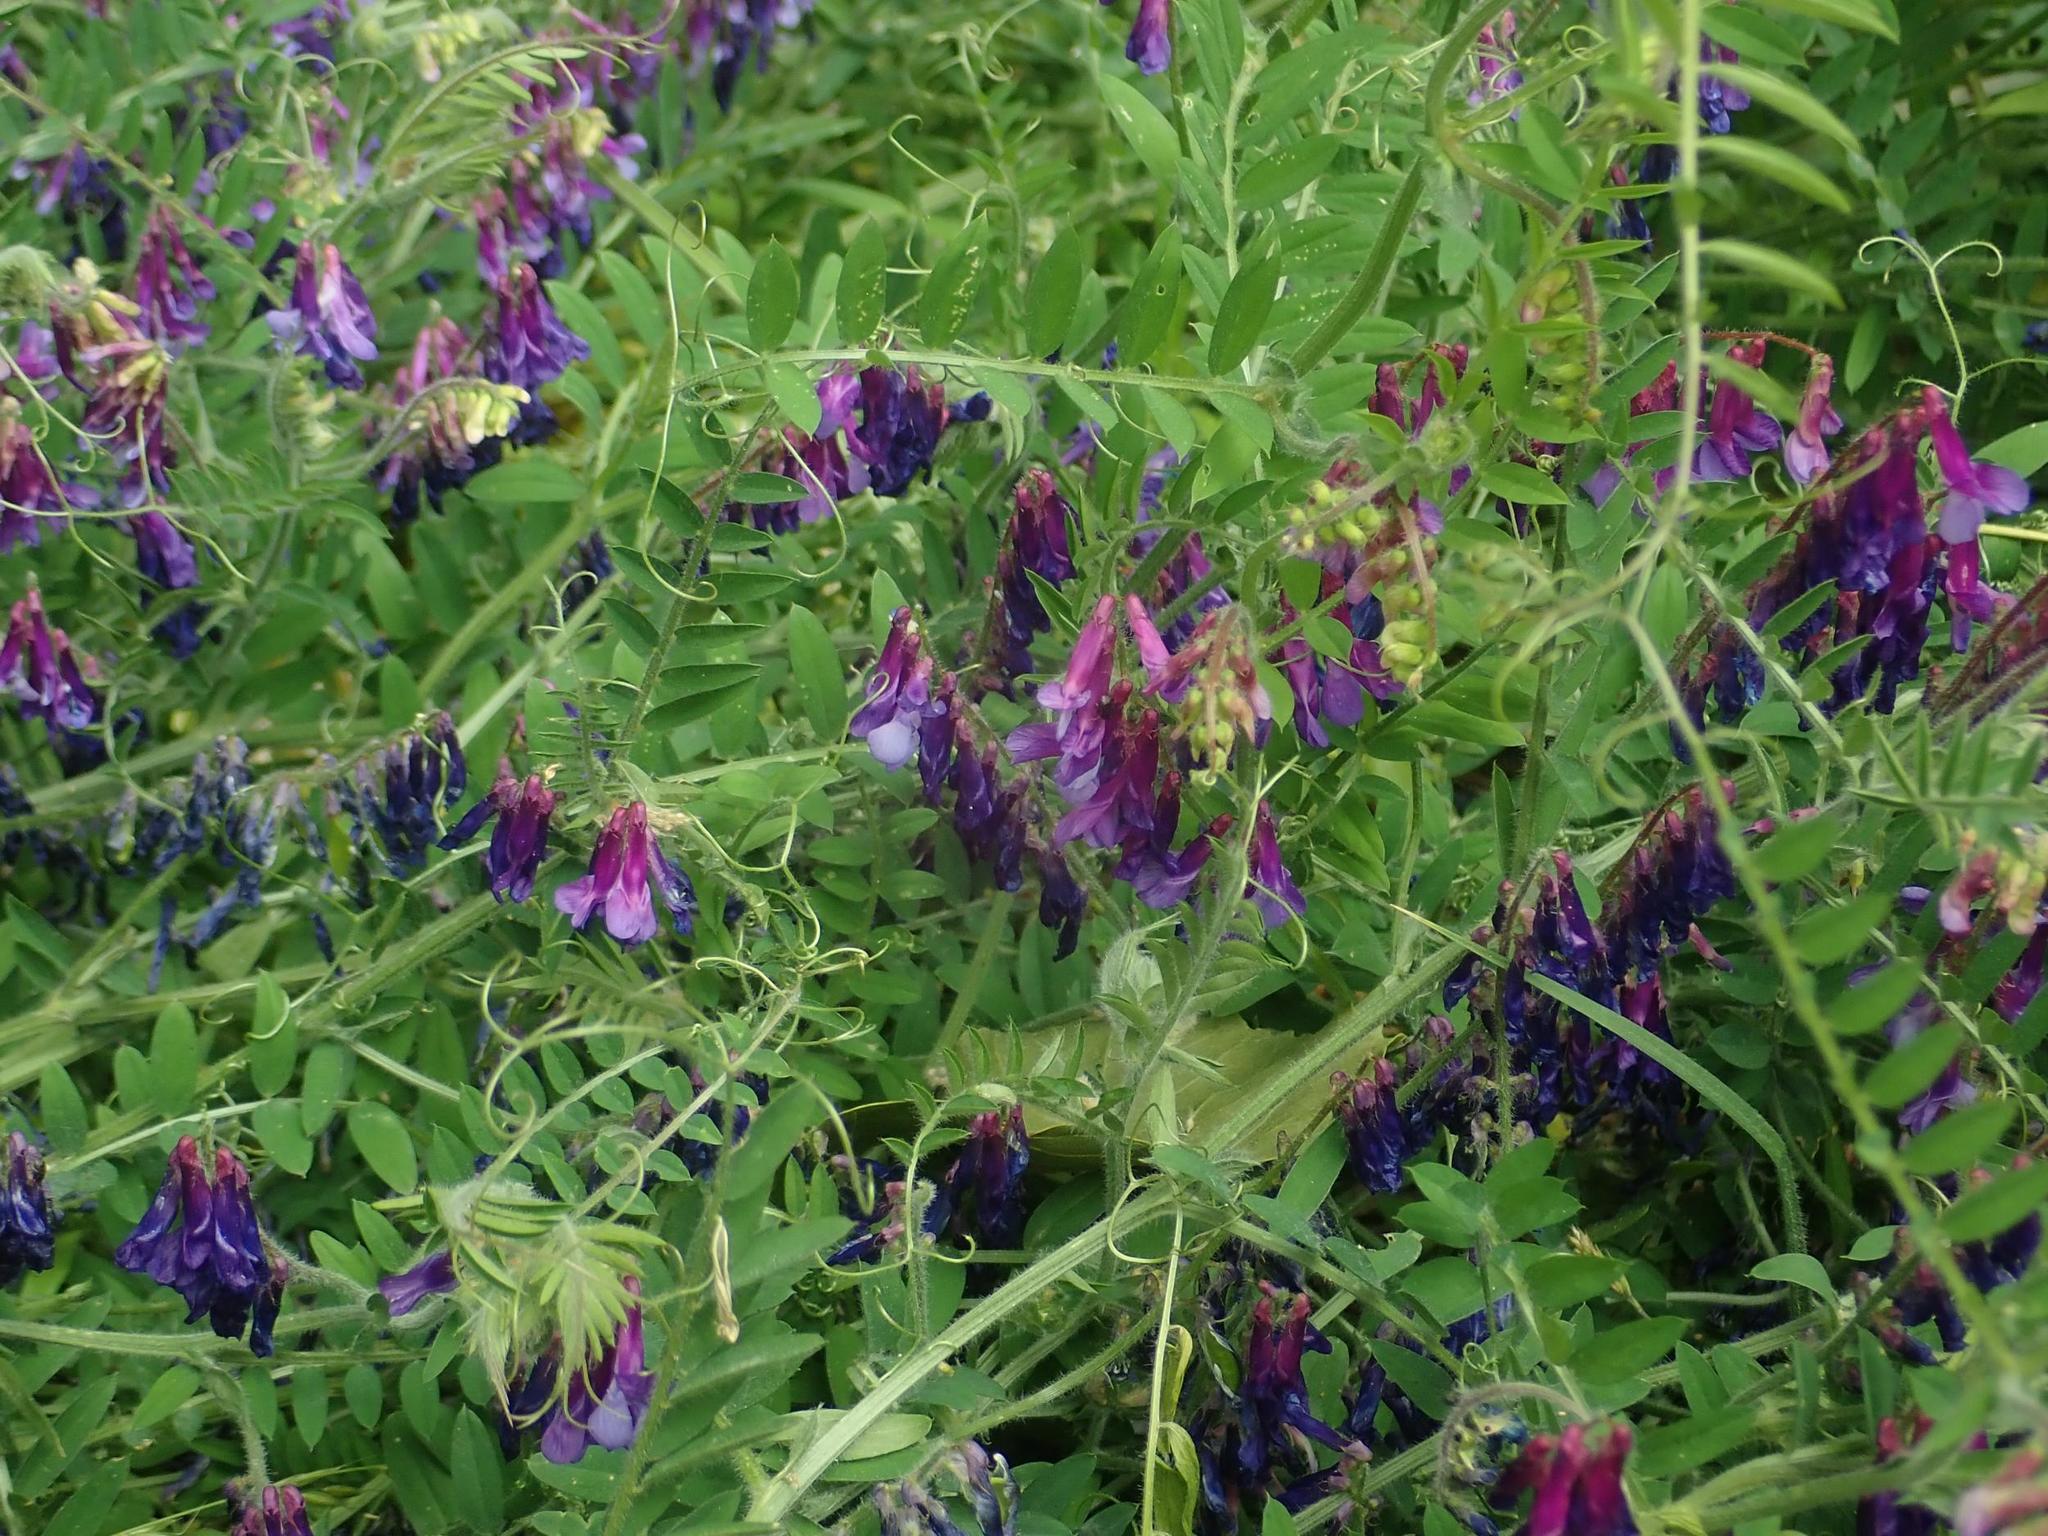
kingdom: Plantae
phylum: Tracheophyta
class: Magnoliopsida
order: Fabales
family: Fabaceae
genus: Vicia
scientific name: Vicia villosa
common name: Fodder vetch
